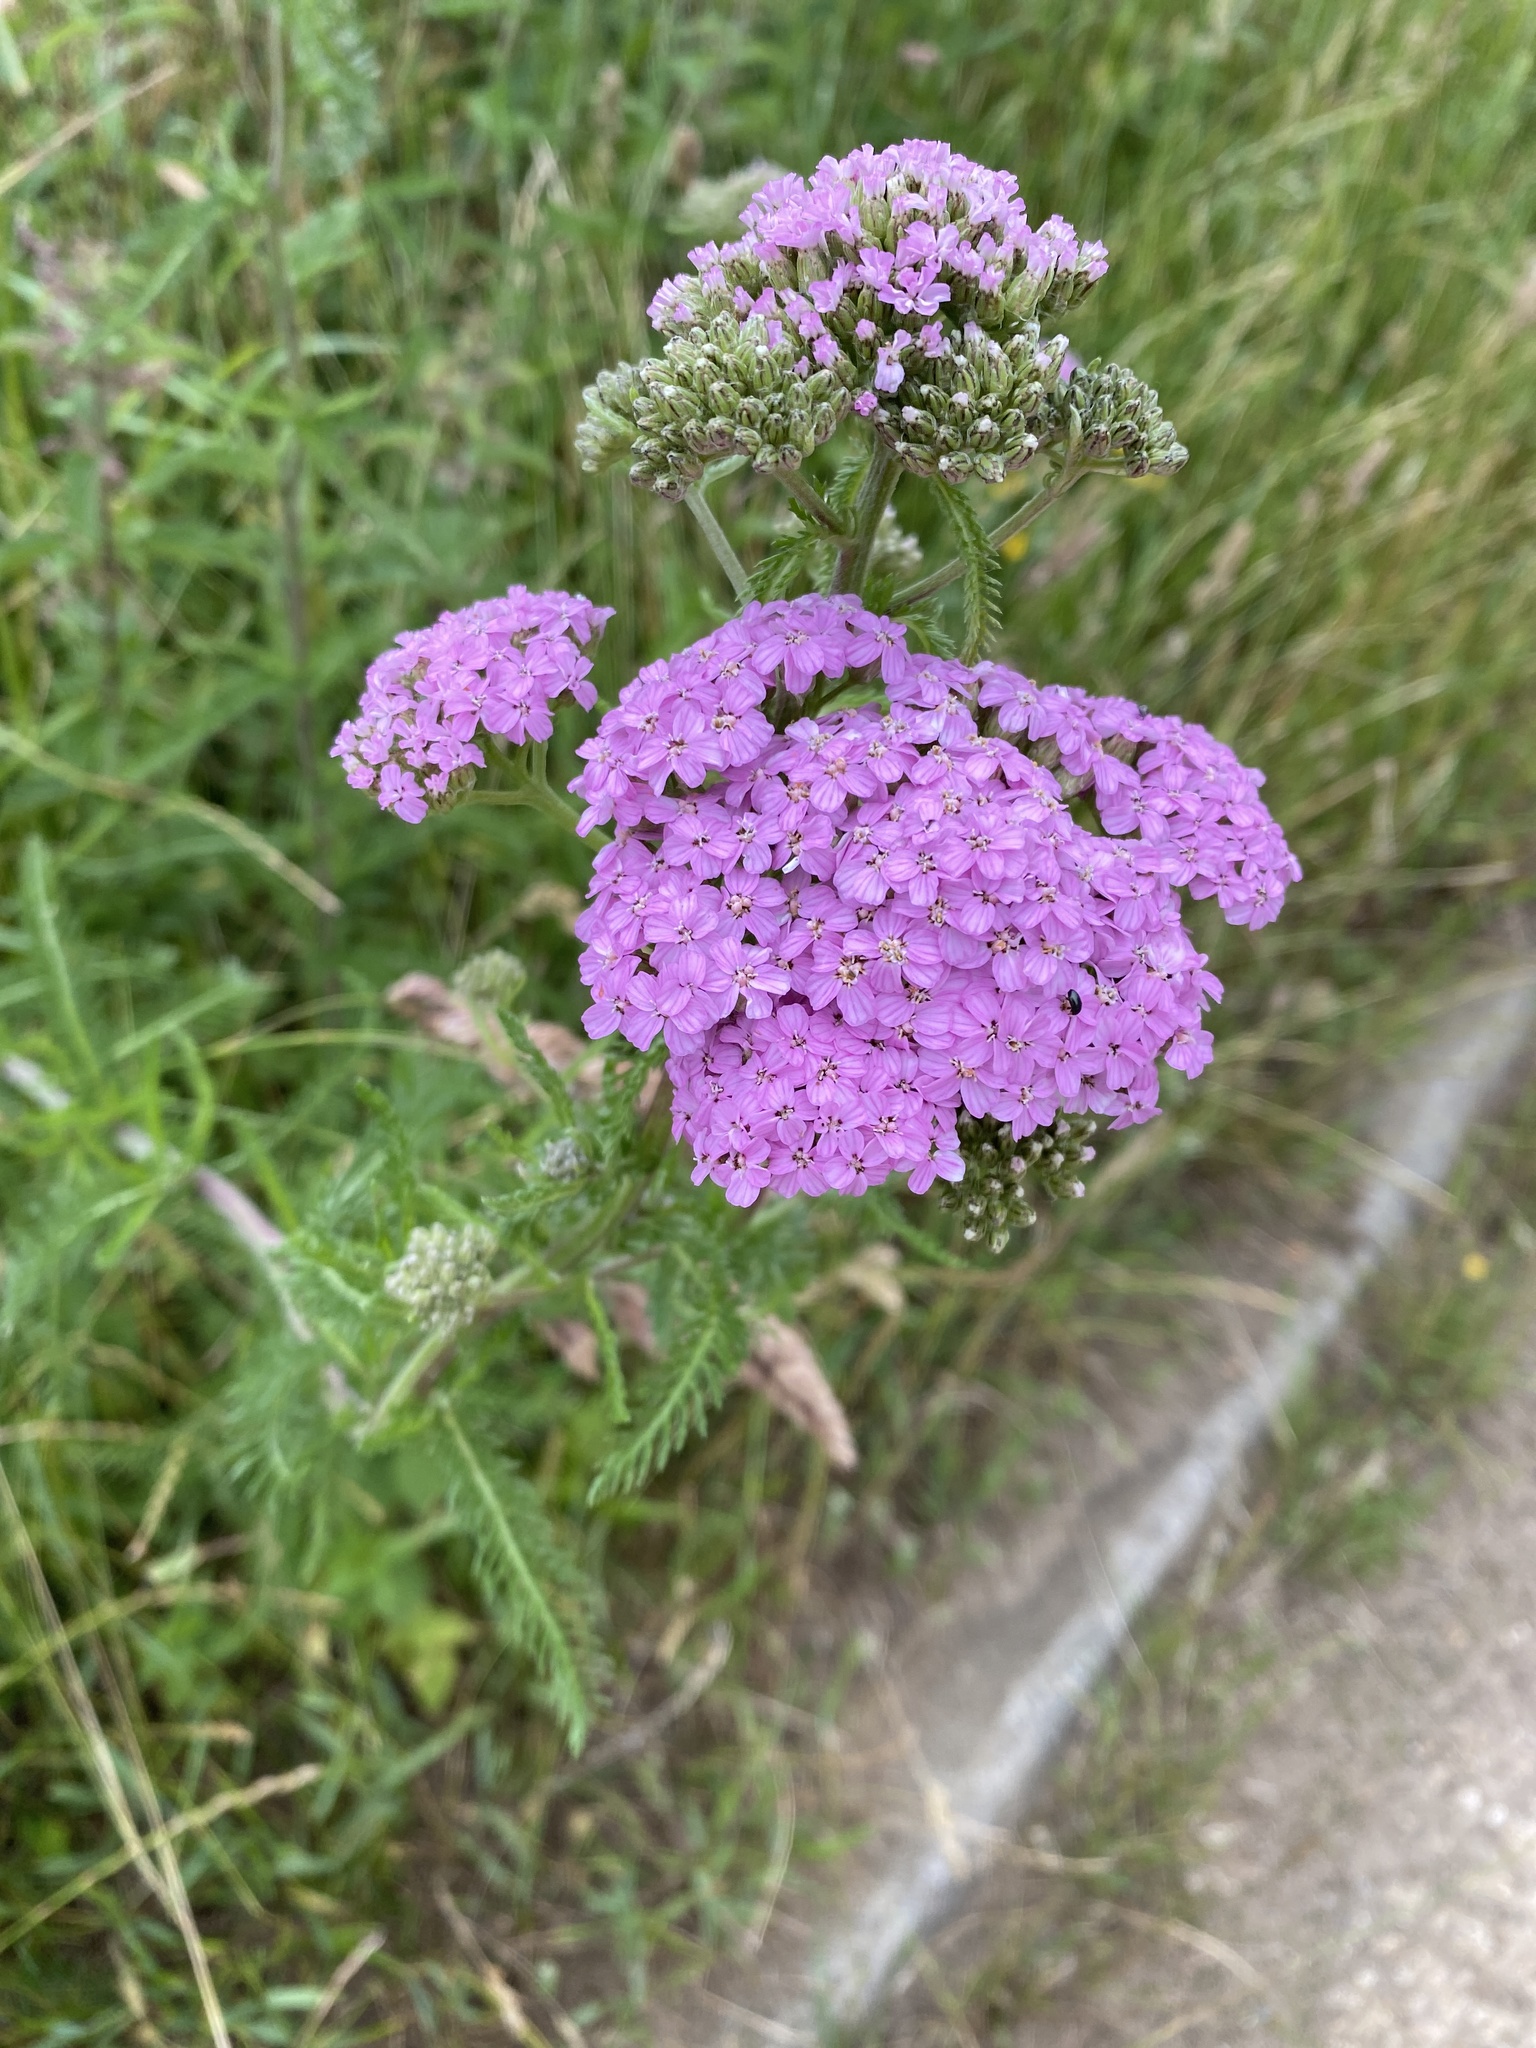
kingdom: Plantae
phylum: Tracheophyta
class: Magnoliopsida
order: Asterales
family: Asteraceae
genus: Achillea
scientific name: Achillea millefolium
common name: Yarrow
